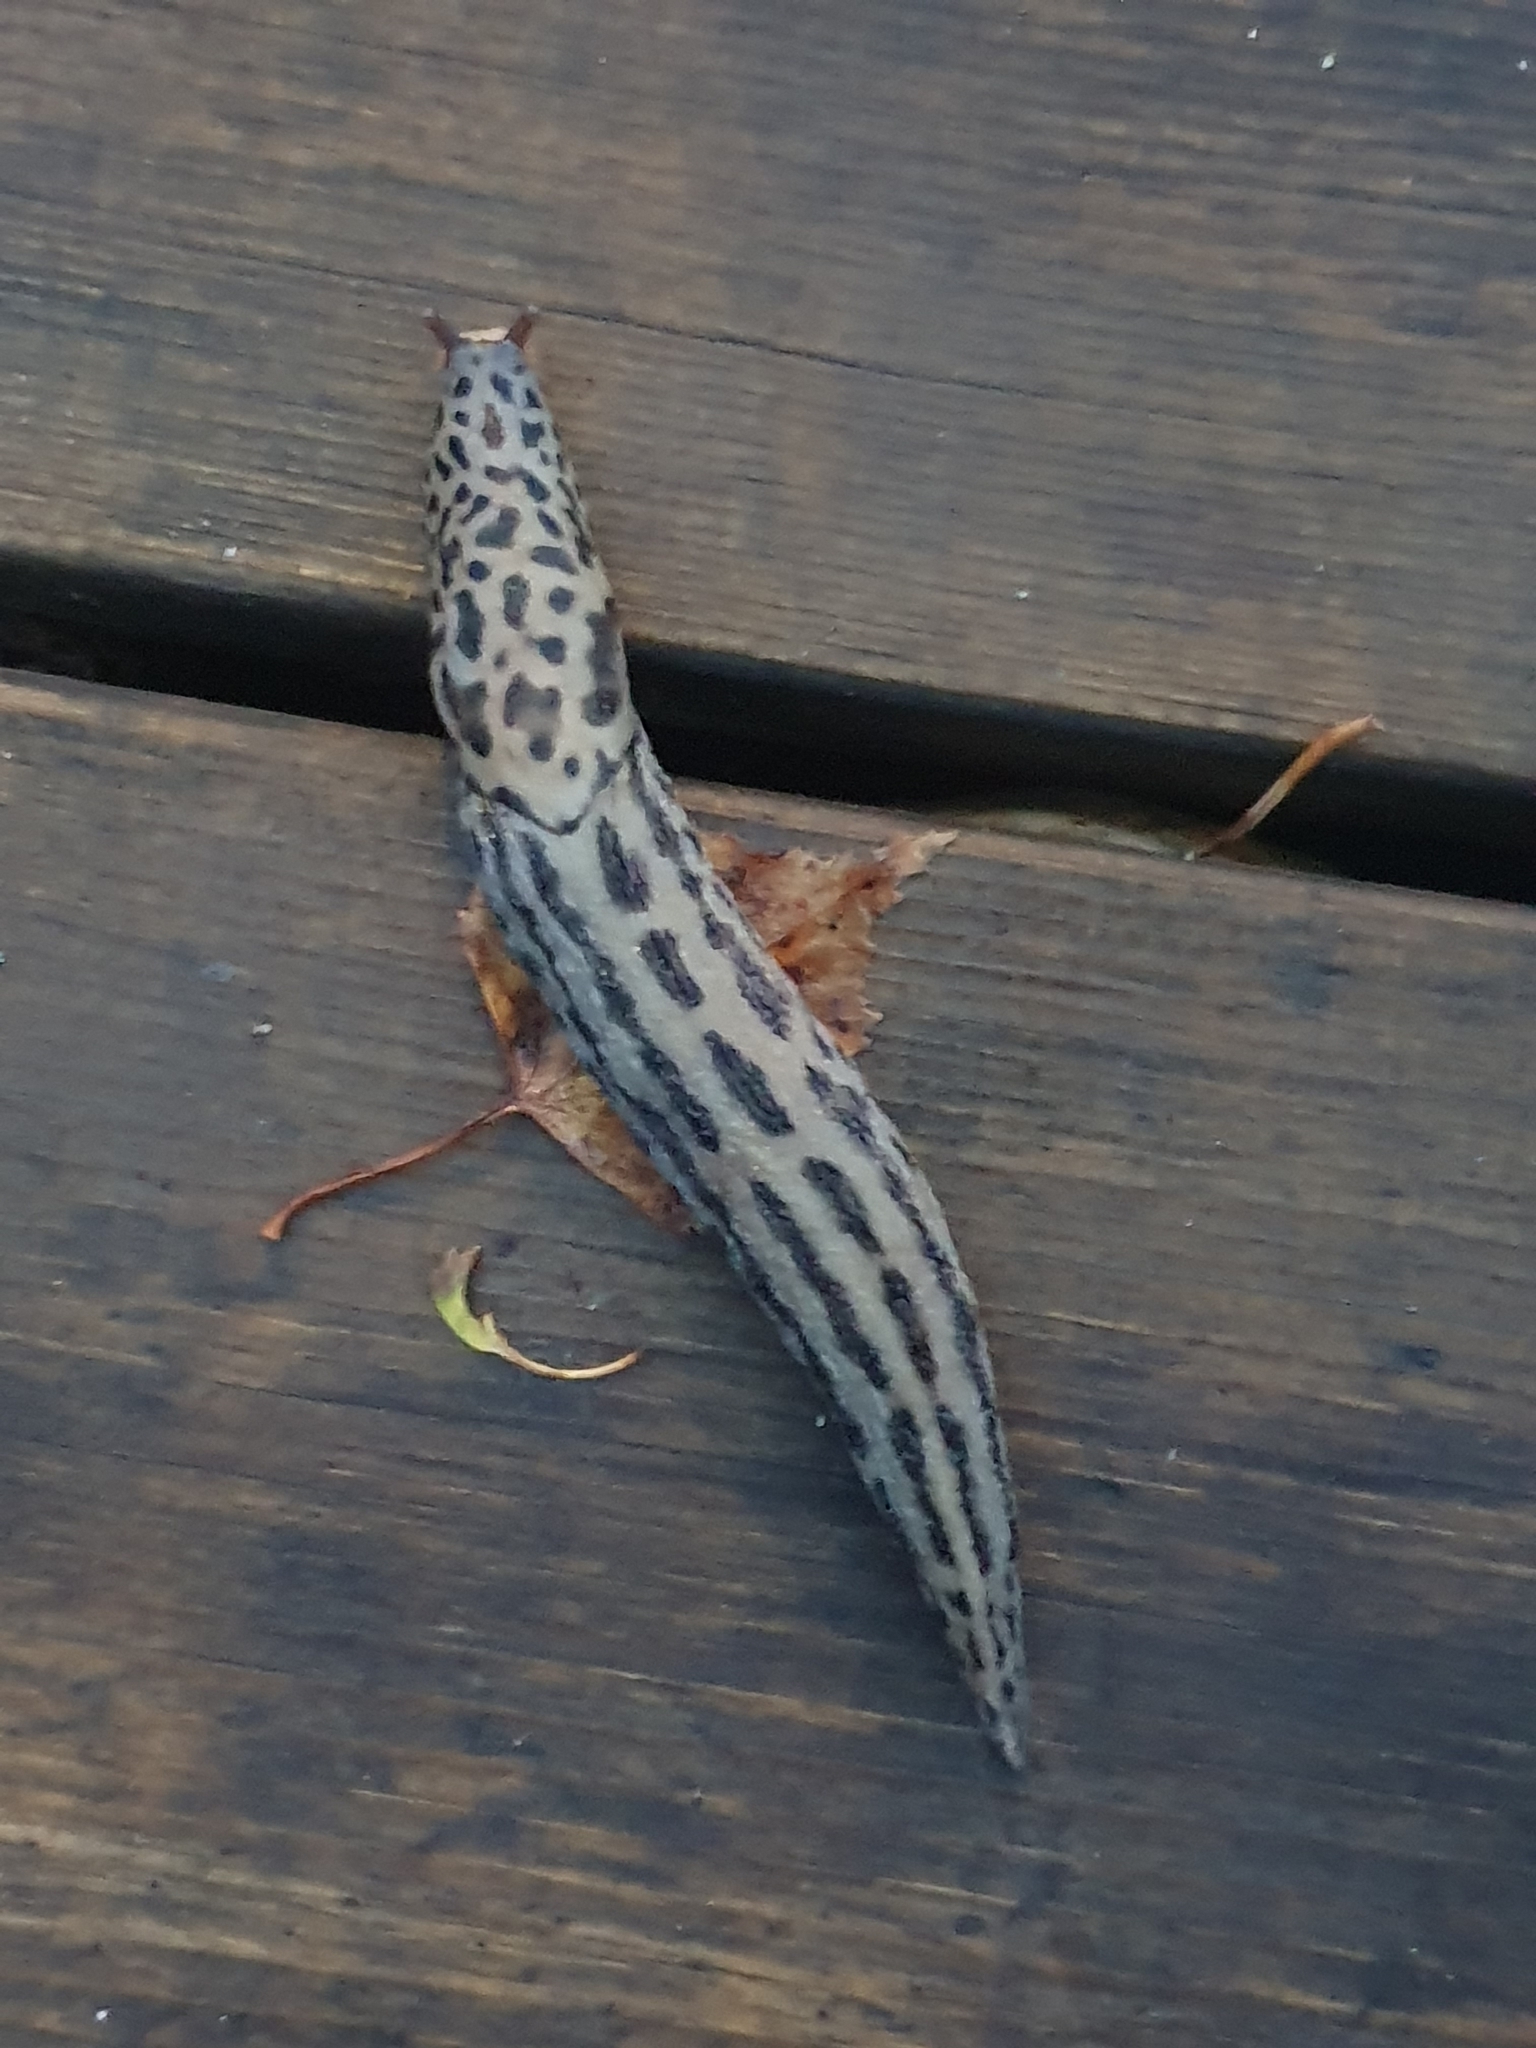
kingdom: Animalia
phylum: Mollusca
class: Gastropoda
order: Stylommatophora
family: Limacidae
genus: Limax
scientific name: Limax maximus
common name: Great grey slug
